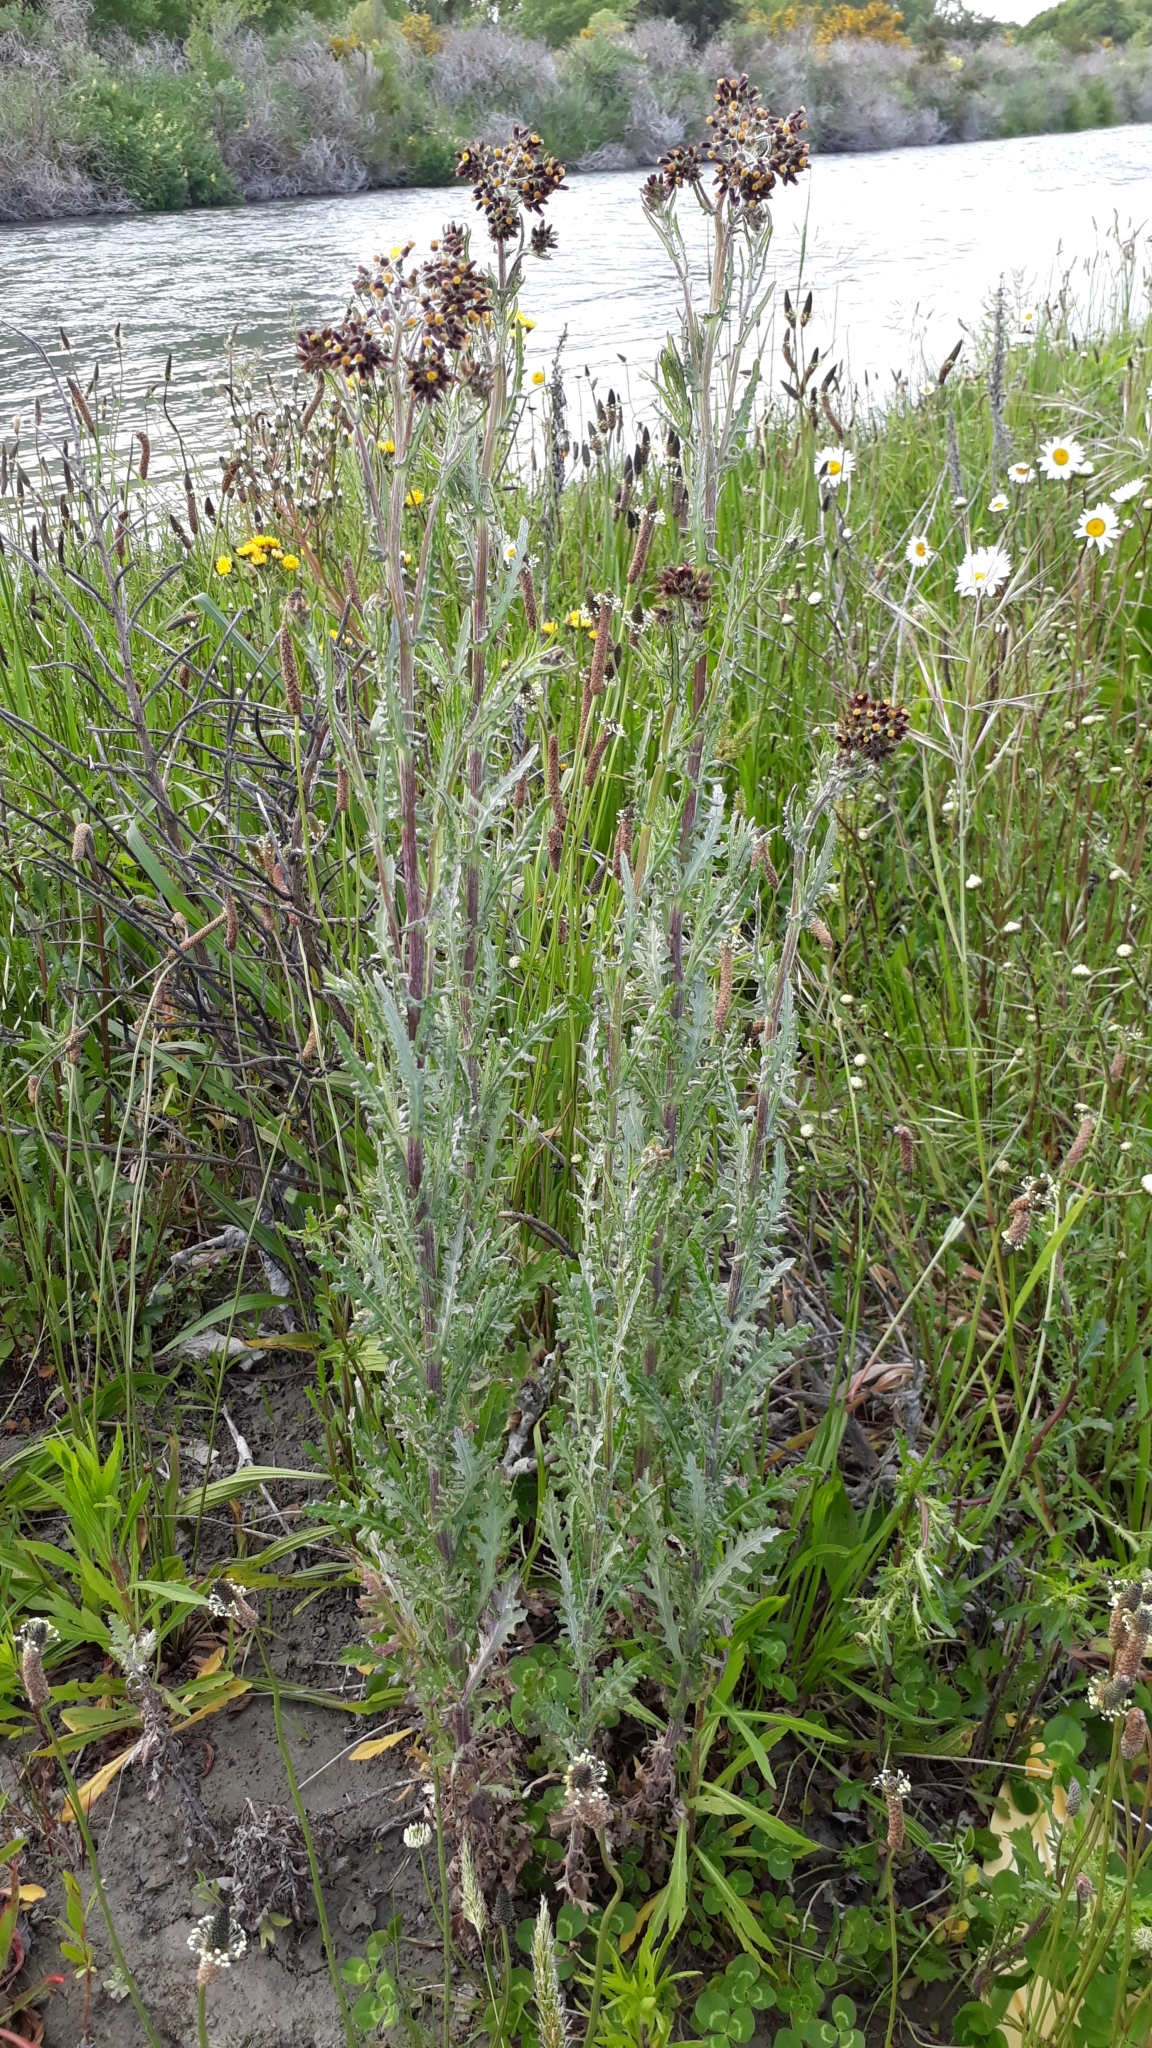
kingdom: Plantae
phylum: Tracheophyta
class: Magnoliopsida
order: Asterales
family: Asteraceae
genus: Senecio
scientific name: Senecio glomeratus
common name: Cutleaf burnweed
